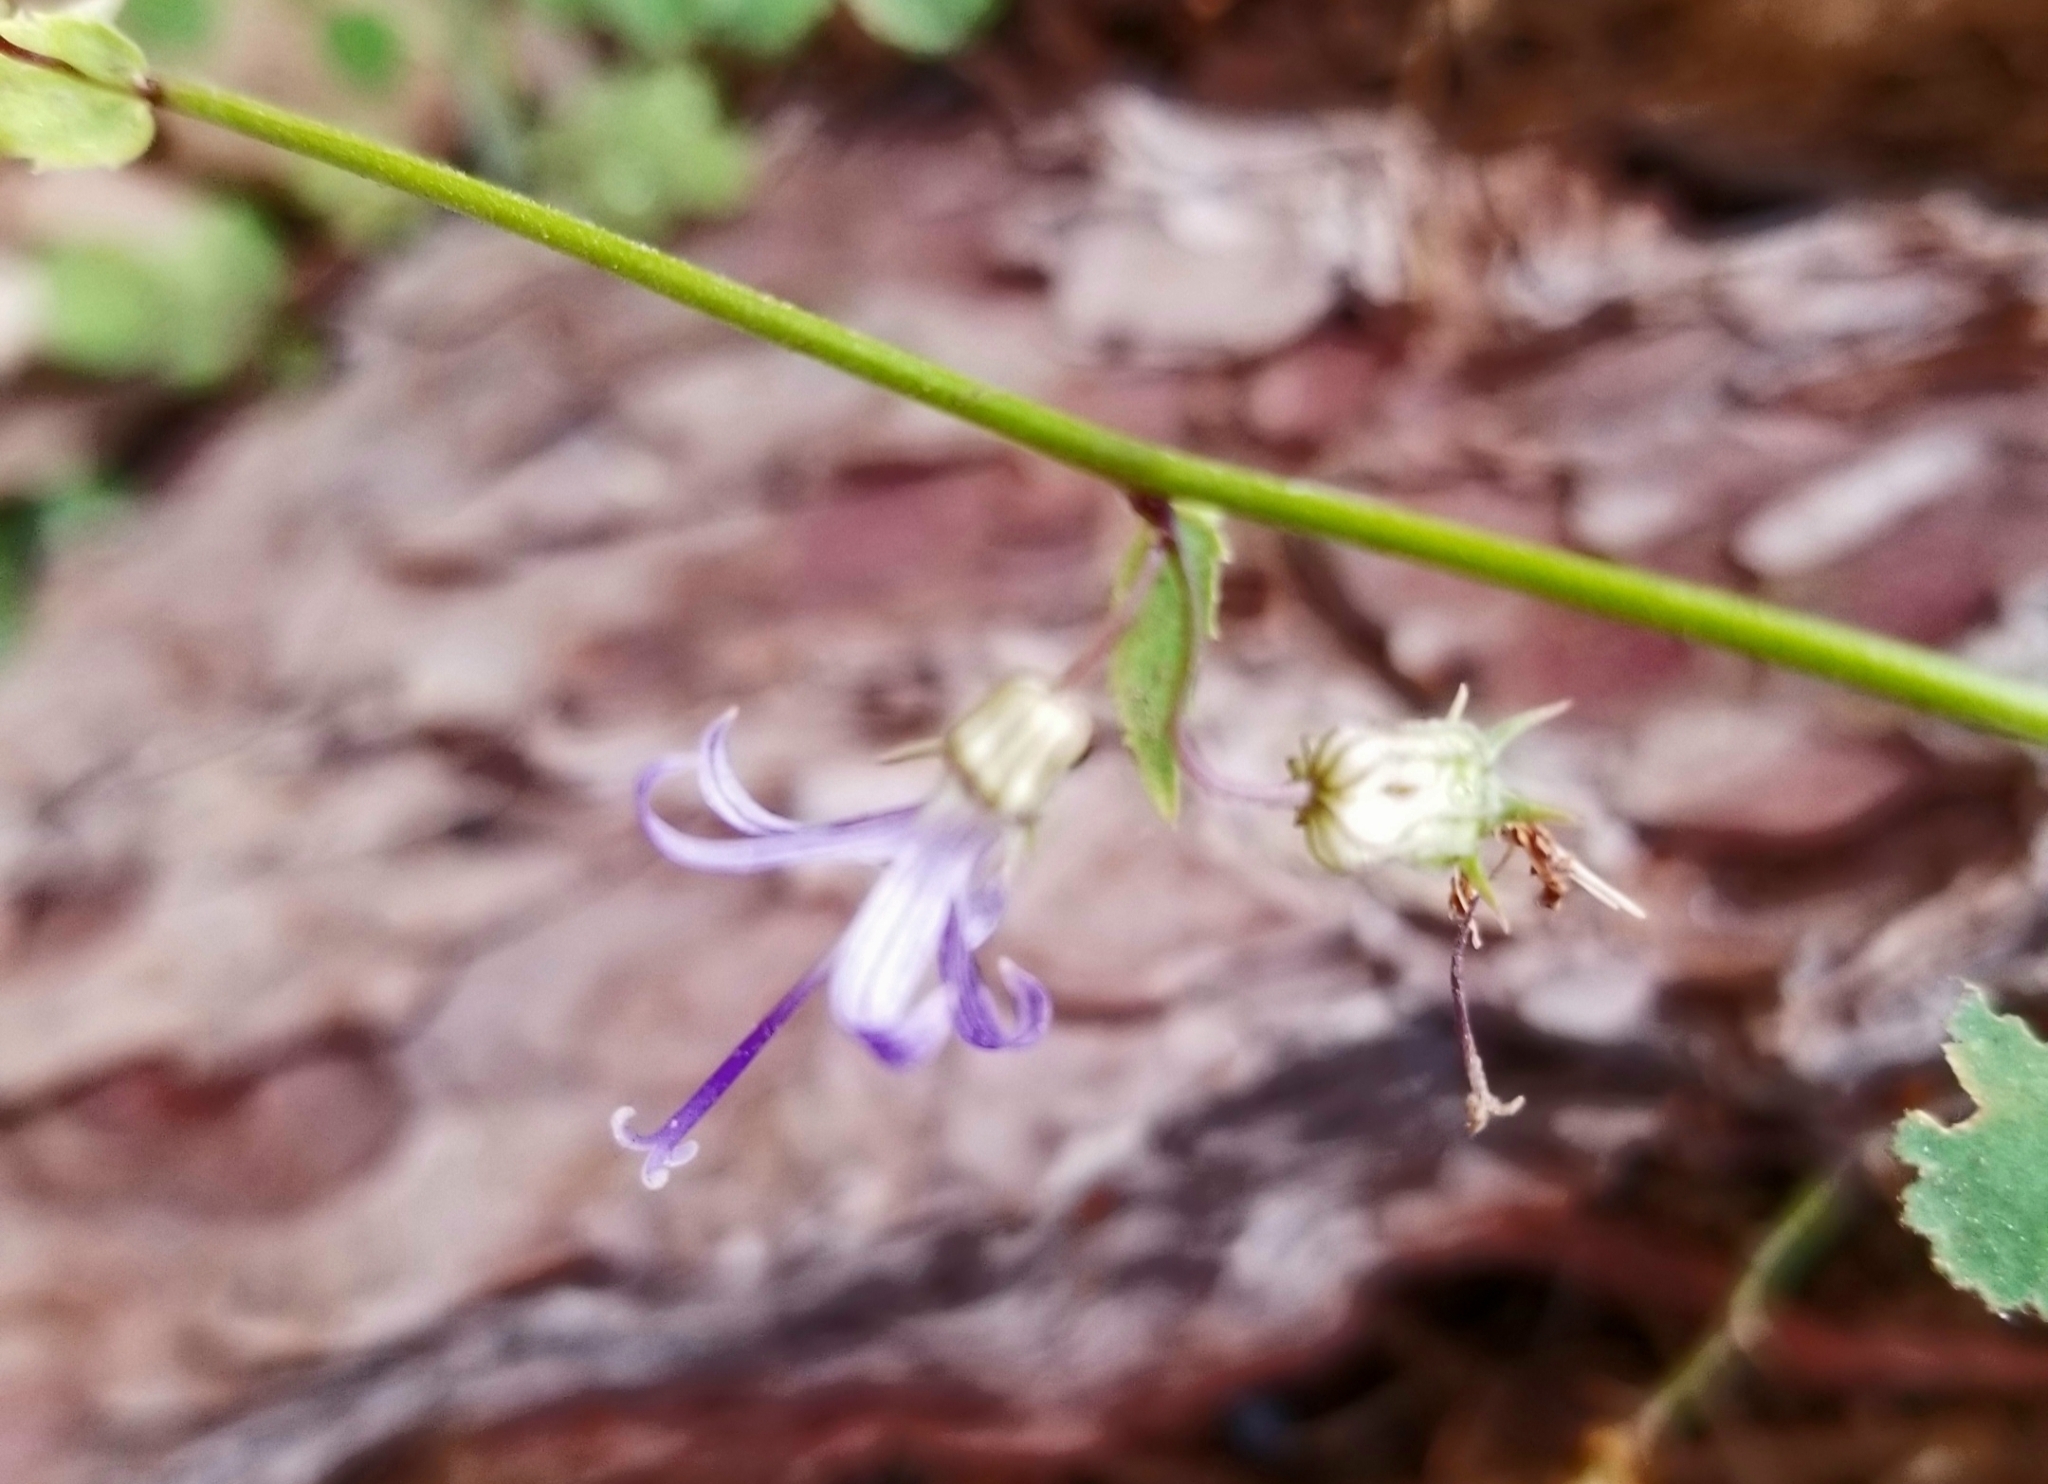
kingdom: Plantae
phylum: Tracheophyta
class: Magnoliopsida
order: Asterales
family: Campanulaceae
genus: Smithiastrum
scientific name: Smithiastrum prenanthoides
